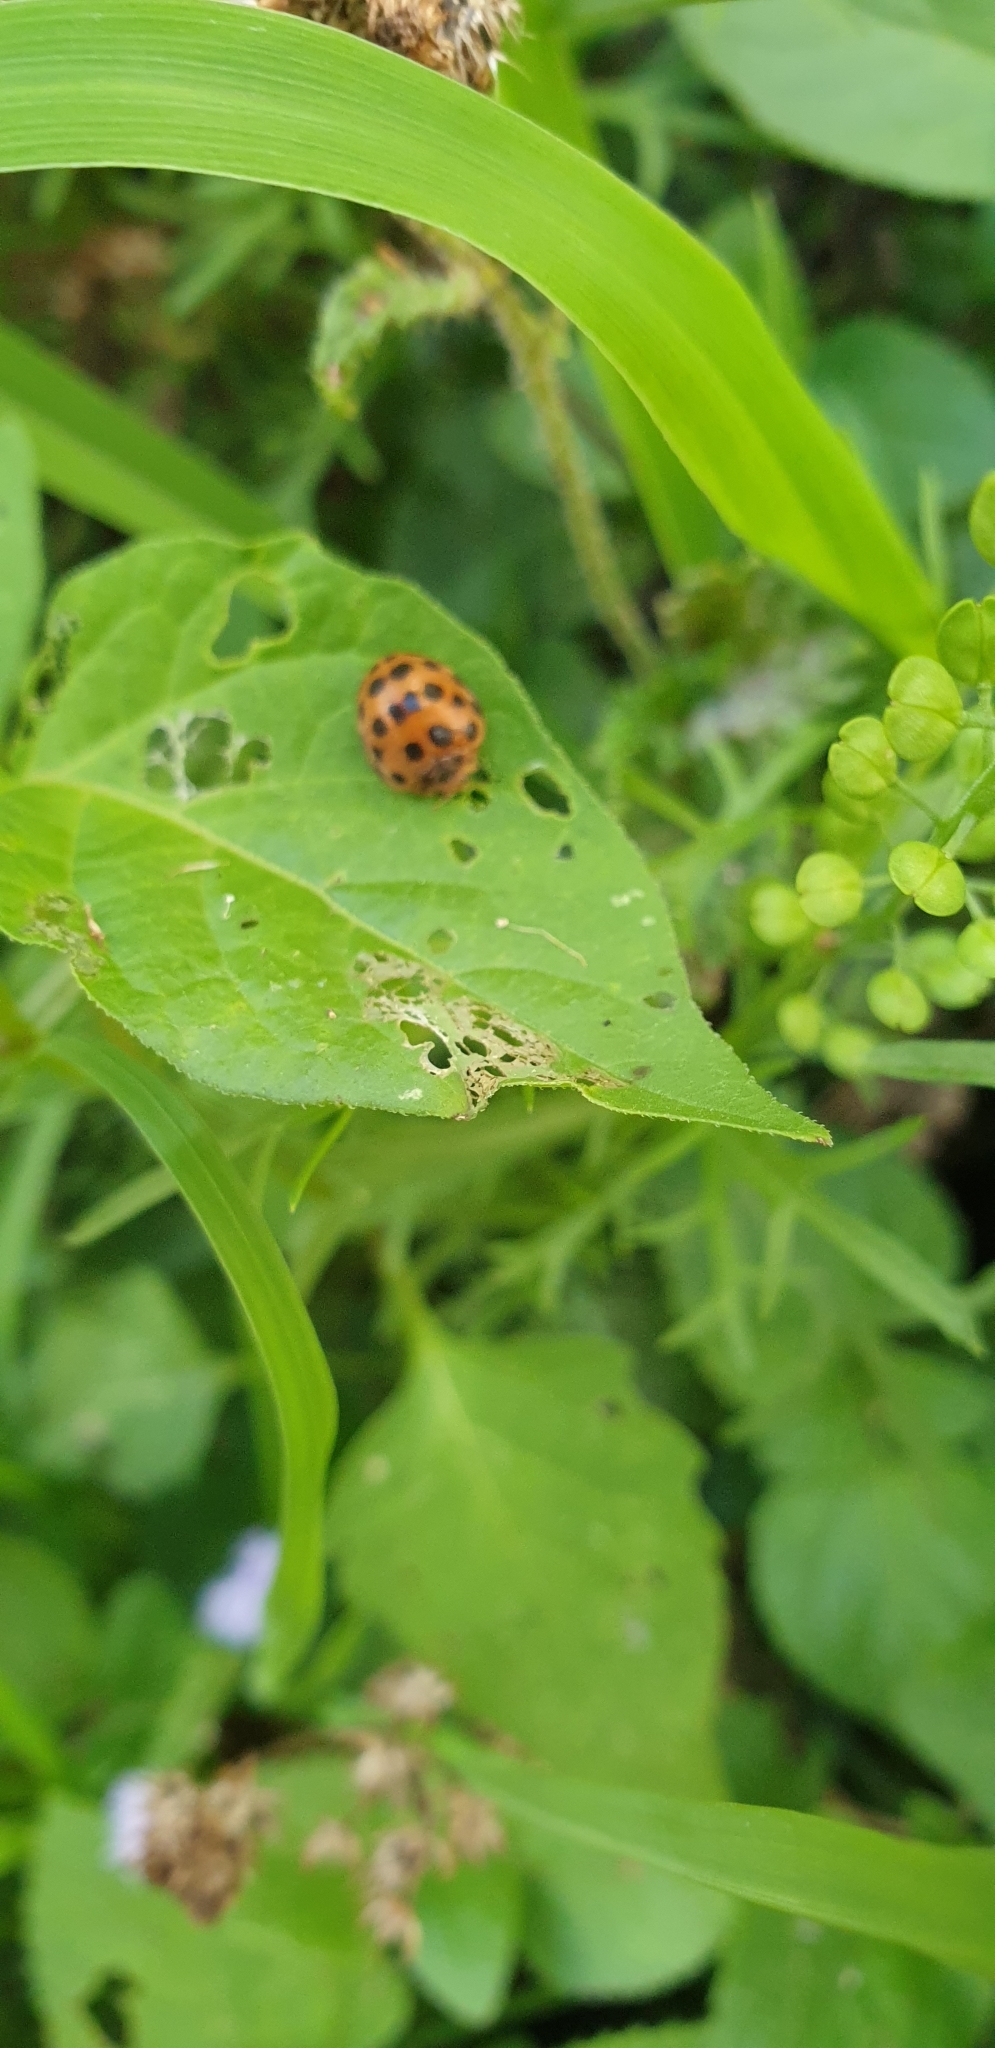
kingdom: Animalia
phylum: Arthropoda
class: Insecta
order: Coleoptera
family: Coccinellidae
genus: Henosepilachna
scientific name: Henosepilachna vigintioctopunctata
